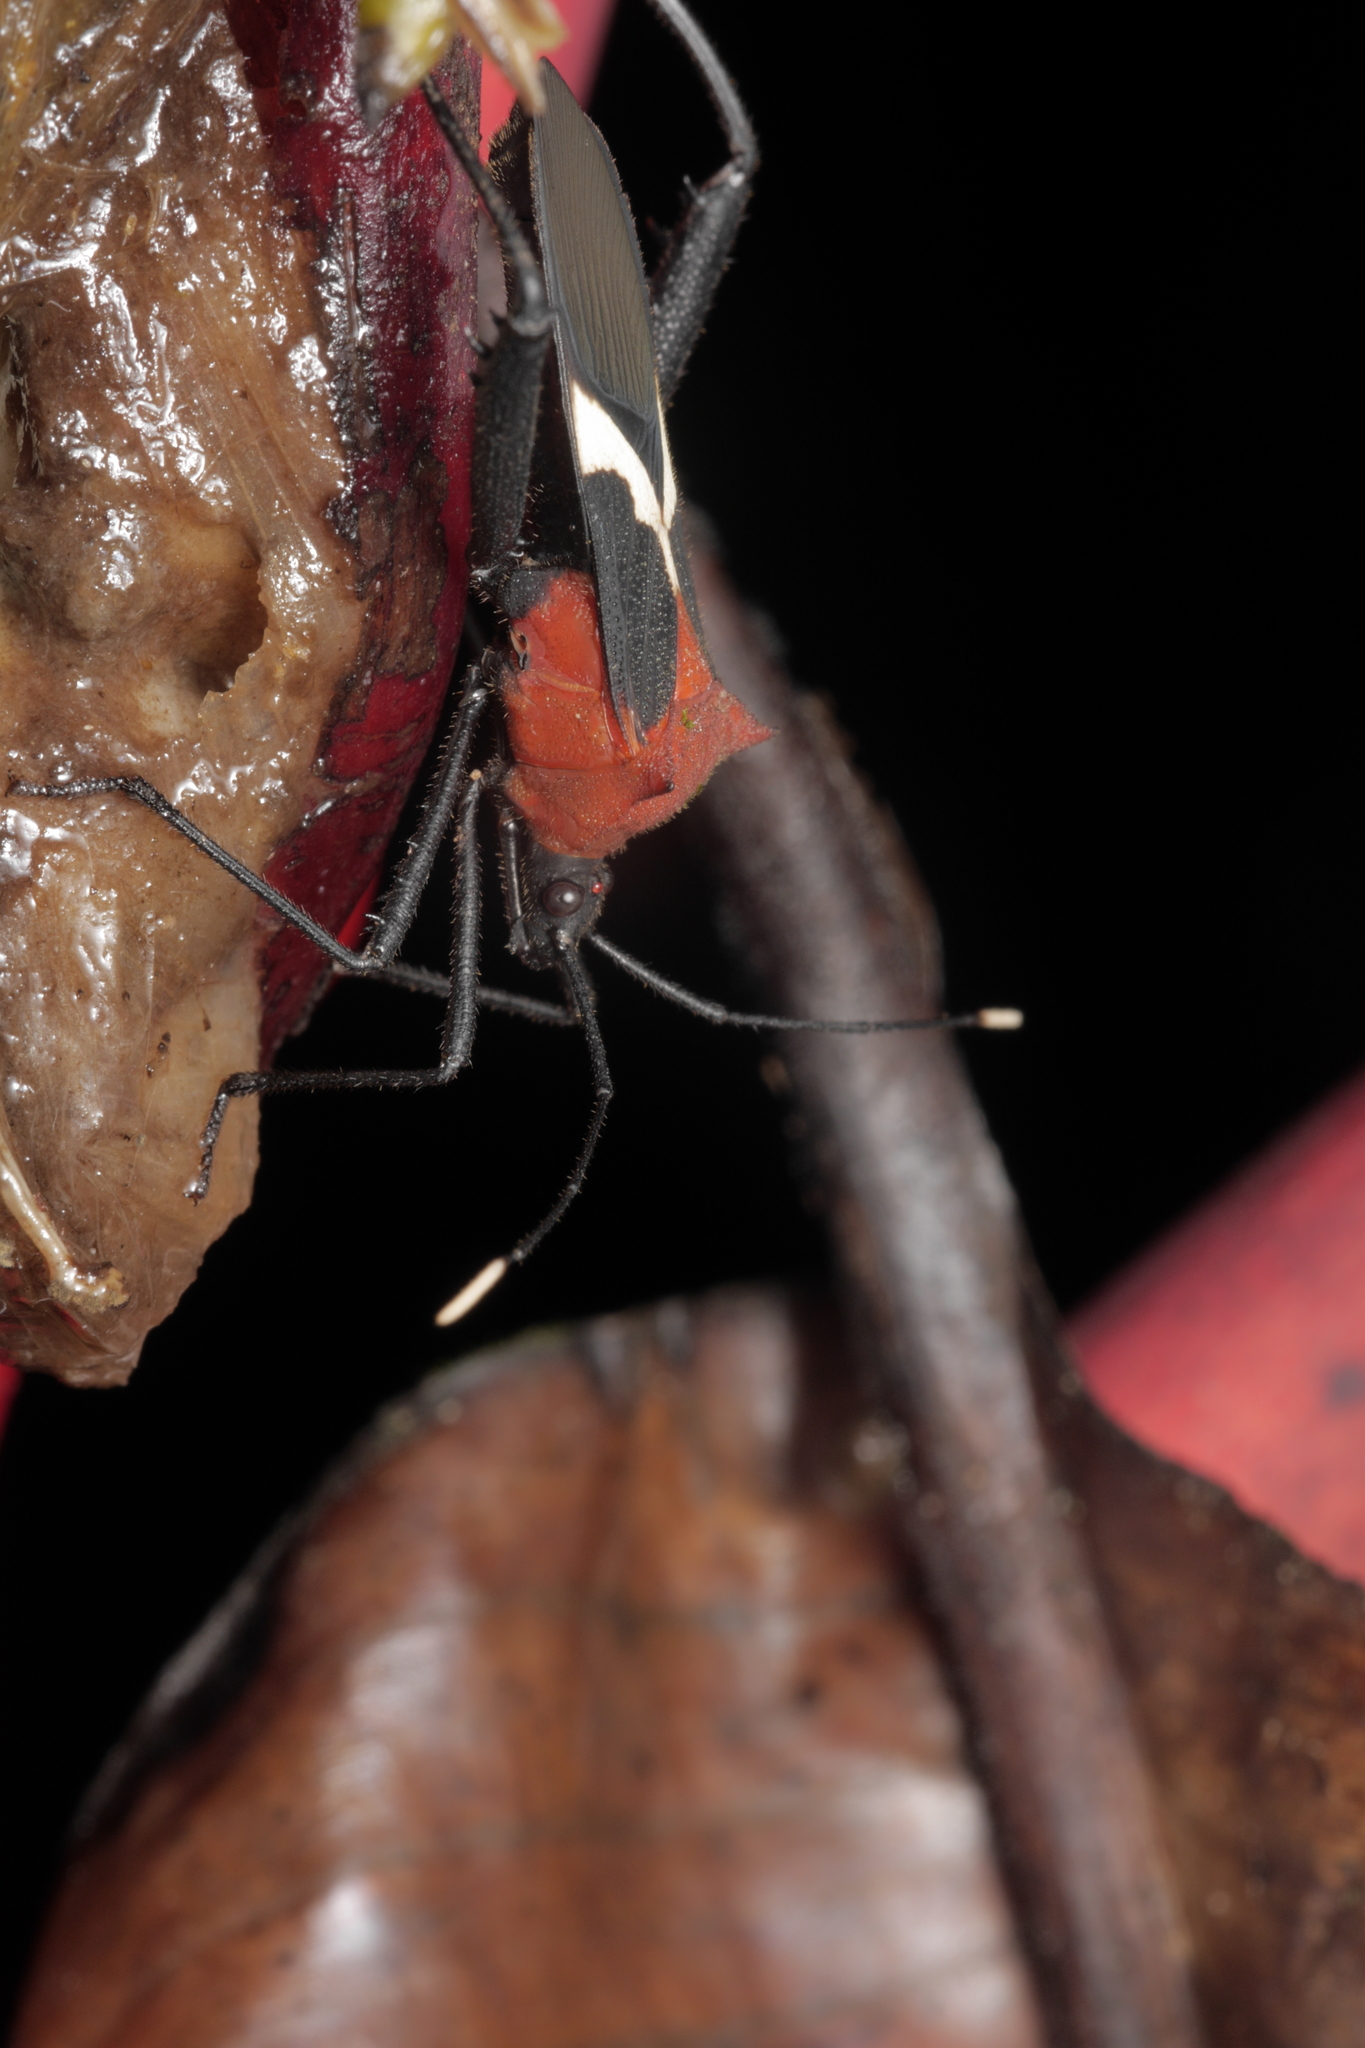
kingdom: Animalia
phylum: Arthropoda
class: Insecta
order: Hemiptera
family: Coreidae
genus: Leptoscelis
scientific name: Leptoscelis militaris
